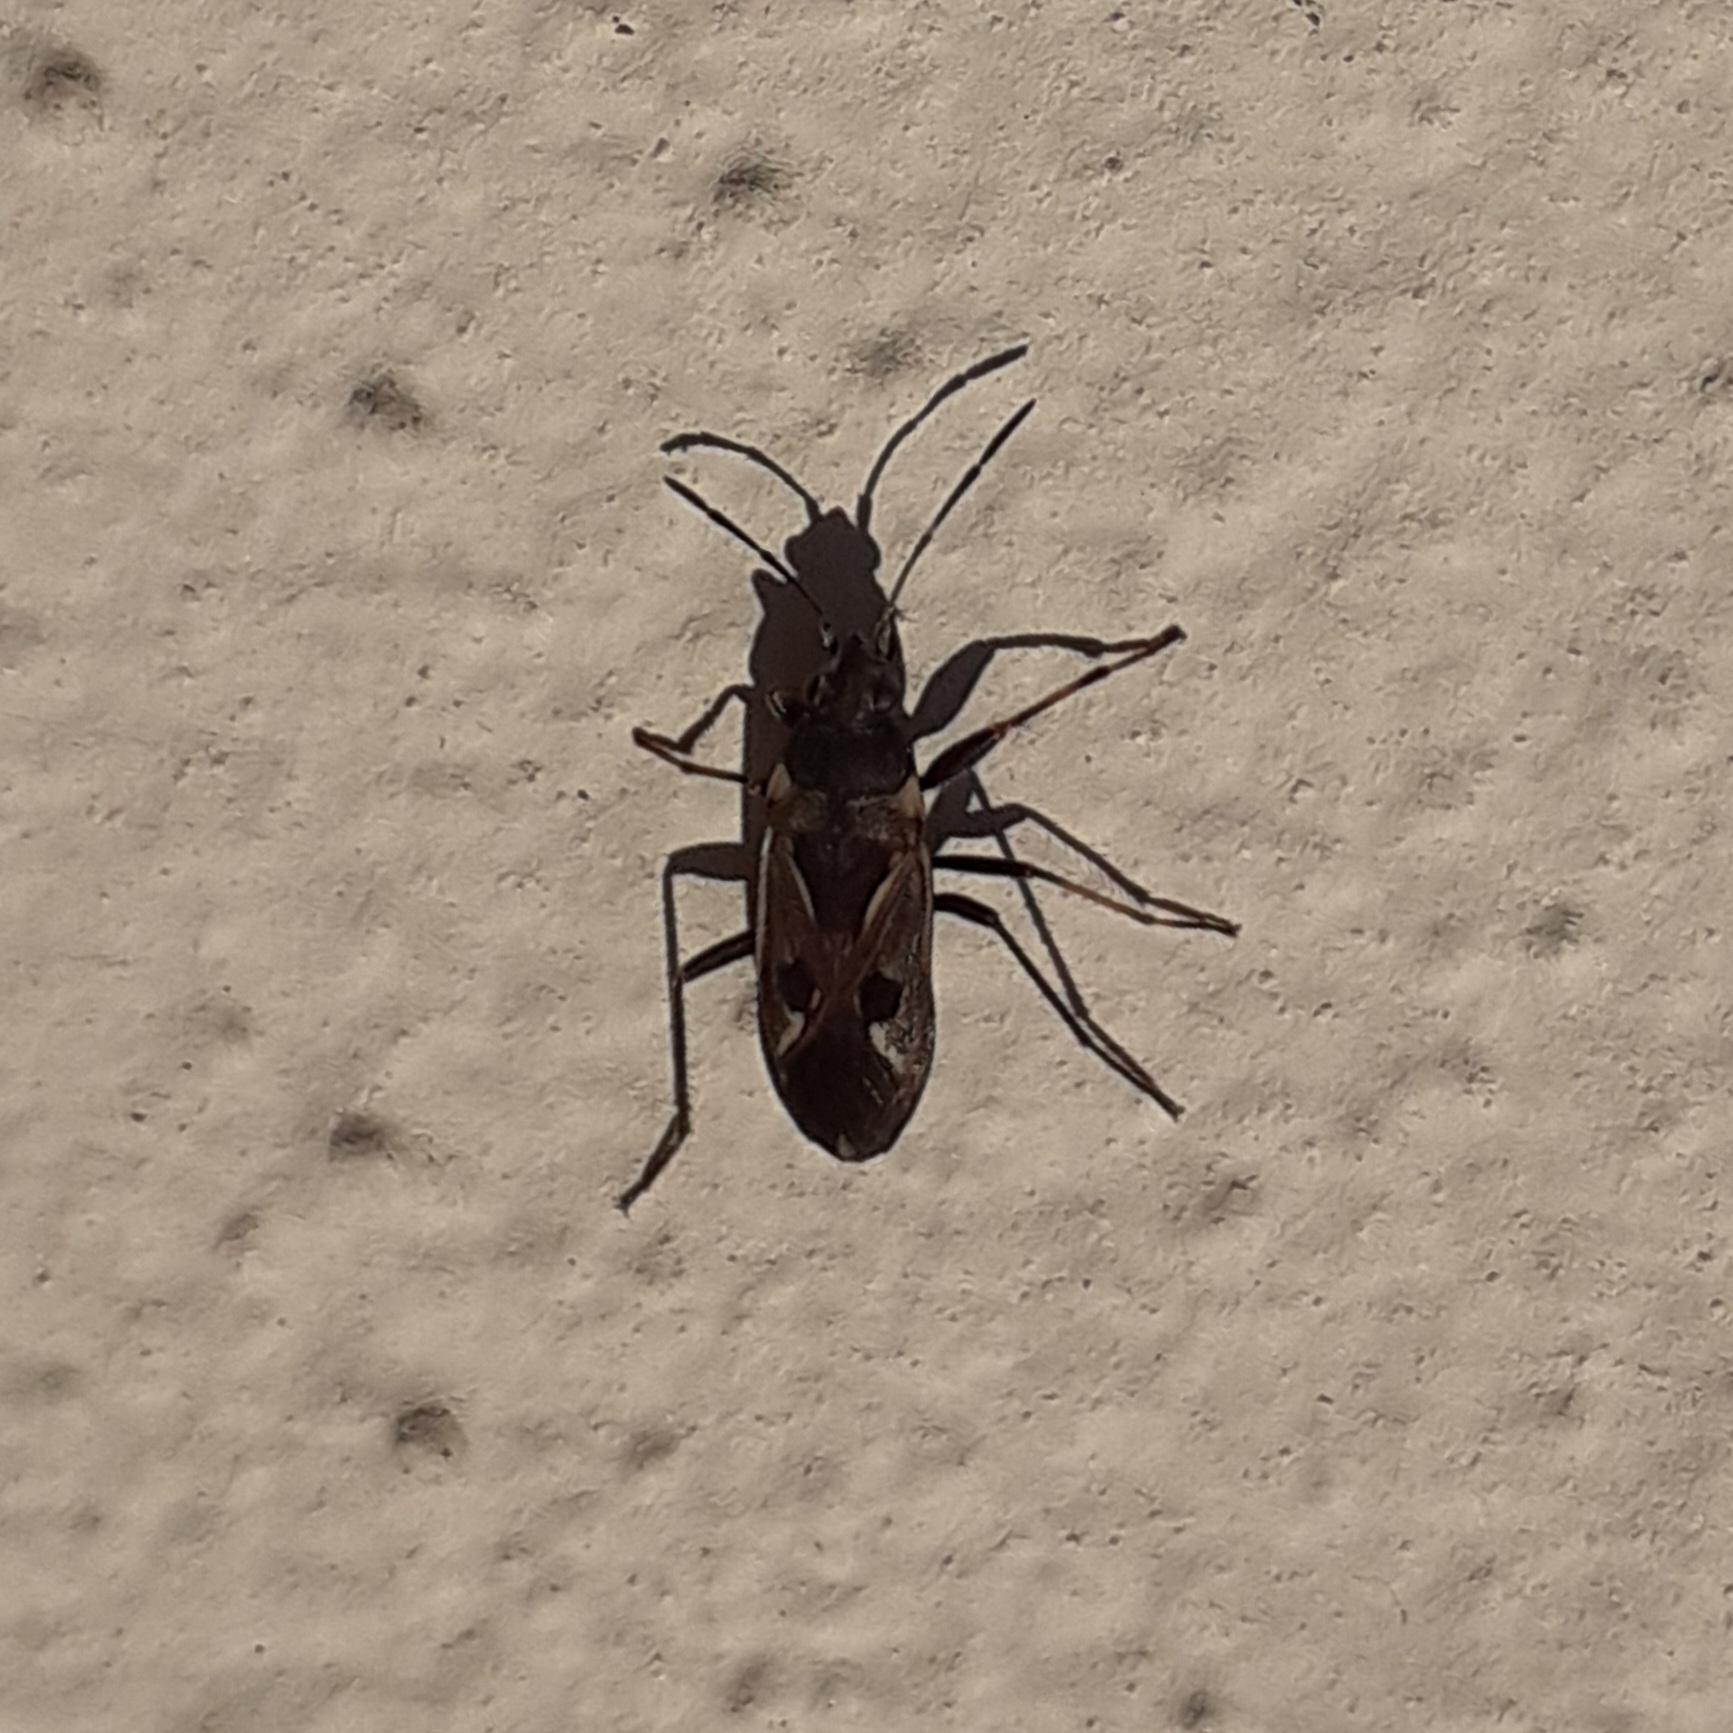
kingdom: Animalia
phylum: Arthropoda
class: Insecta
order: Hemiptera
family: Rhyparochromidae
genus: Rhyparochromus
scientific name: Rhyparochromus vulgaris
